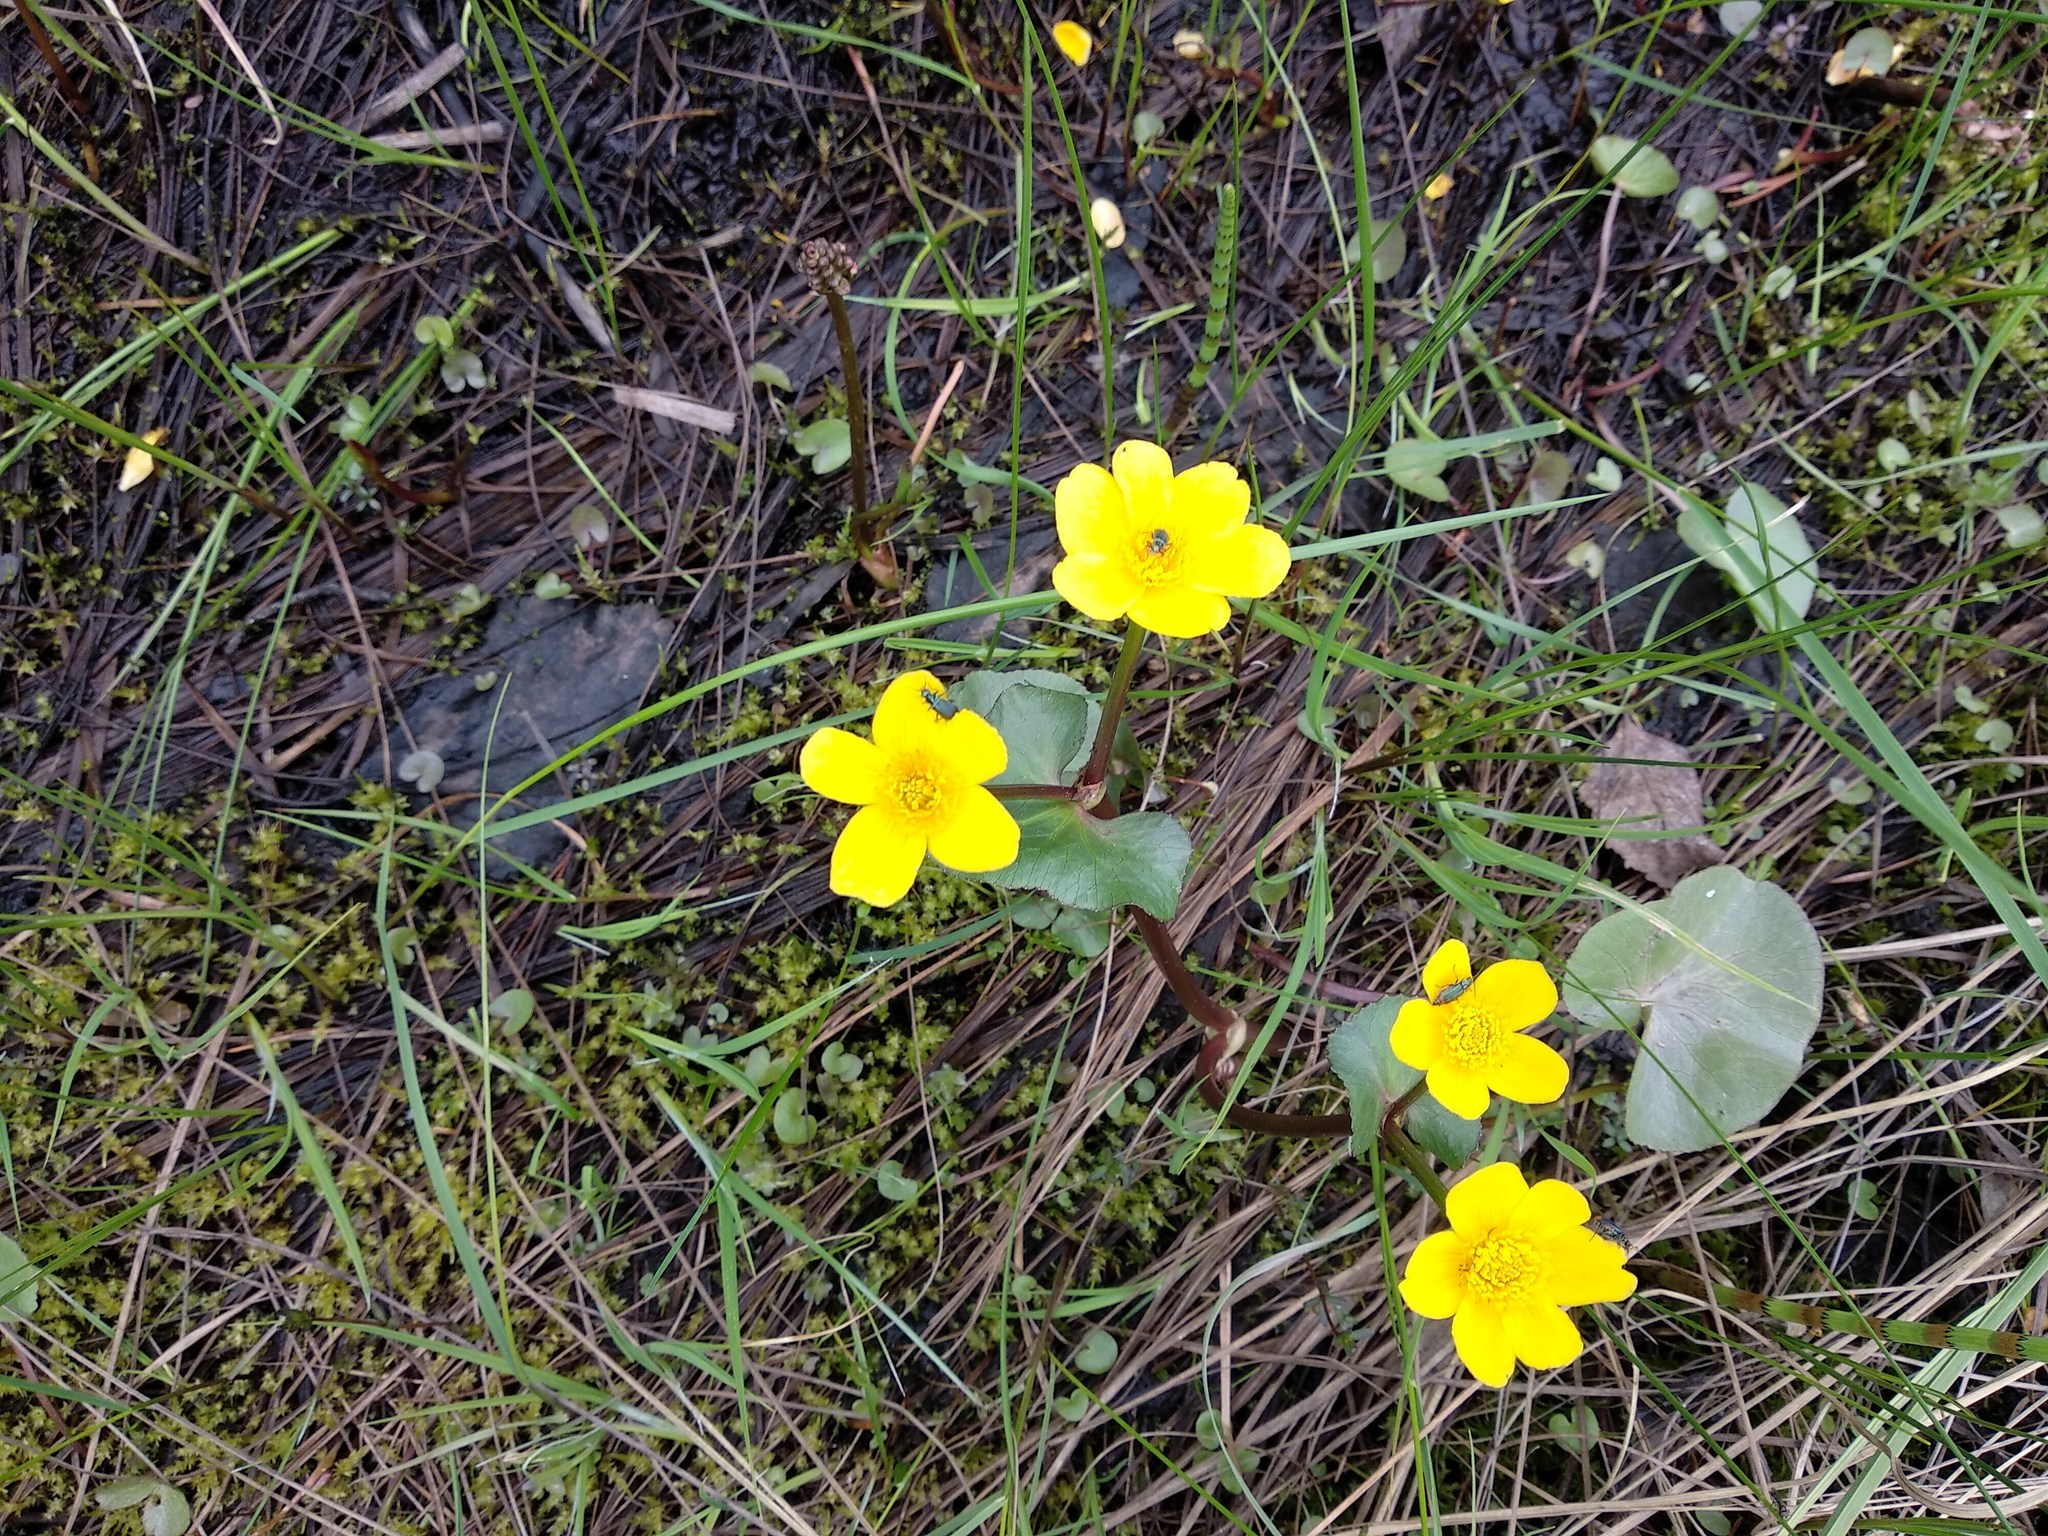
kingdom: Plantae
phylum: Tracheophyta
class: Magnoliopsida
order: Ranunculales
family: Ranunculaceae
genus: Caltha
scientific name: Caltha palustris
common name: Marsh marigold
